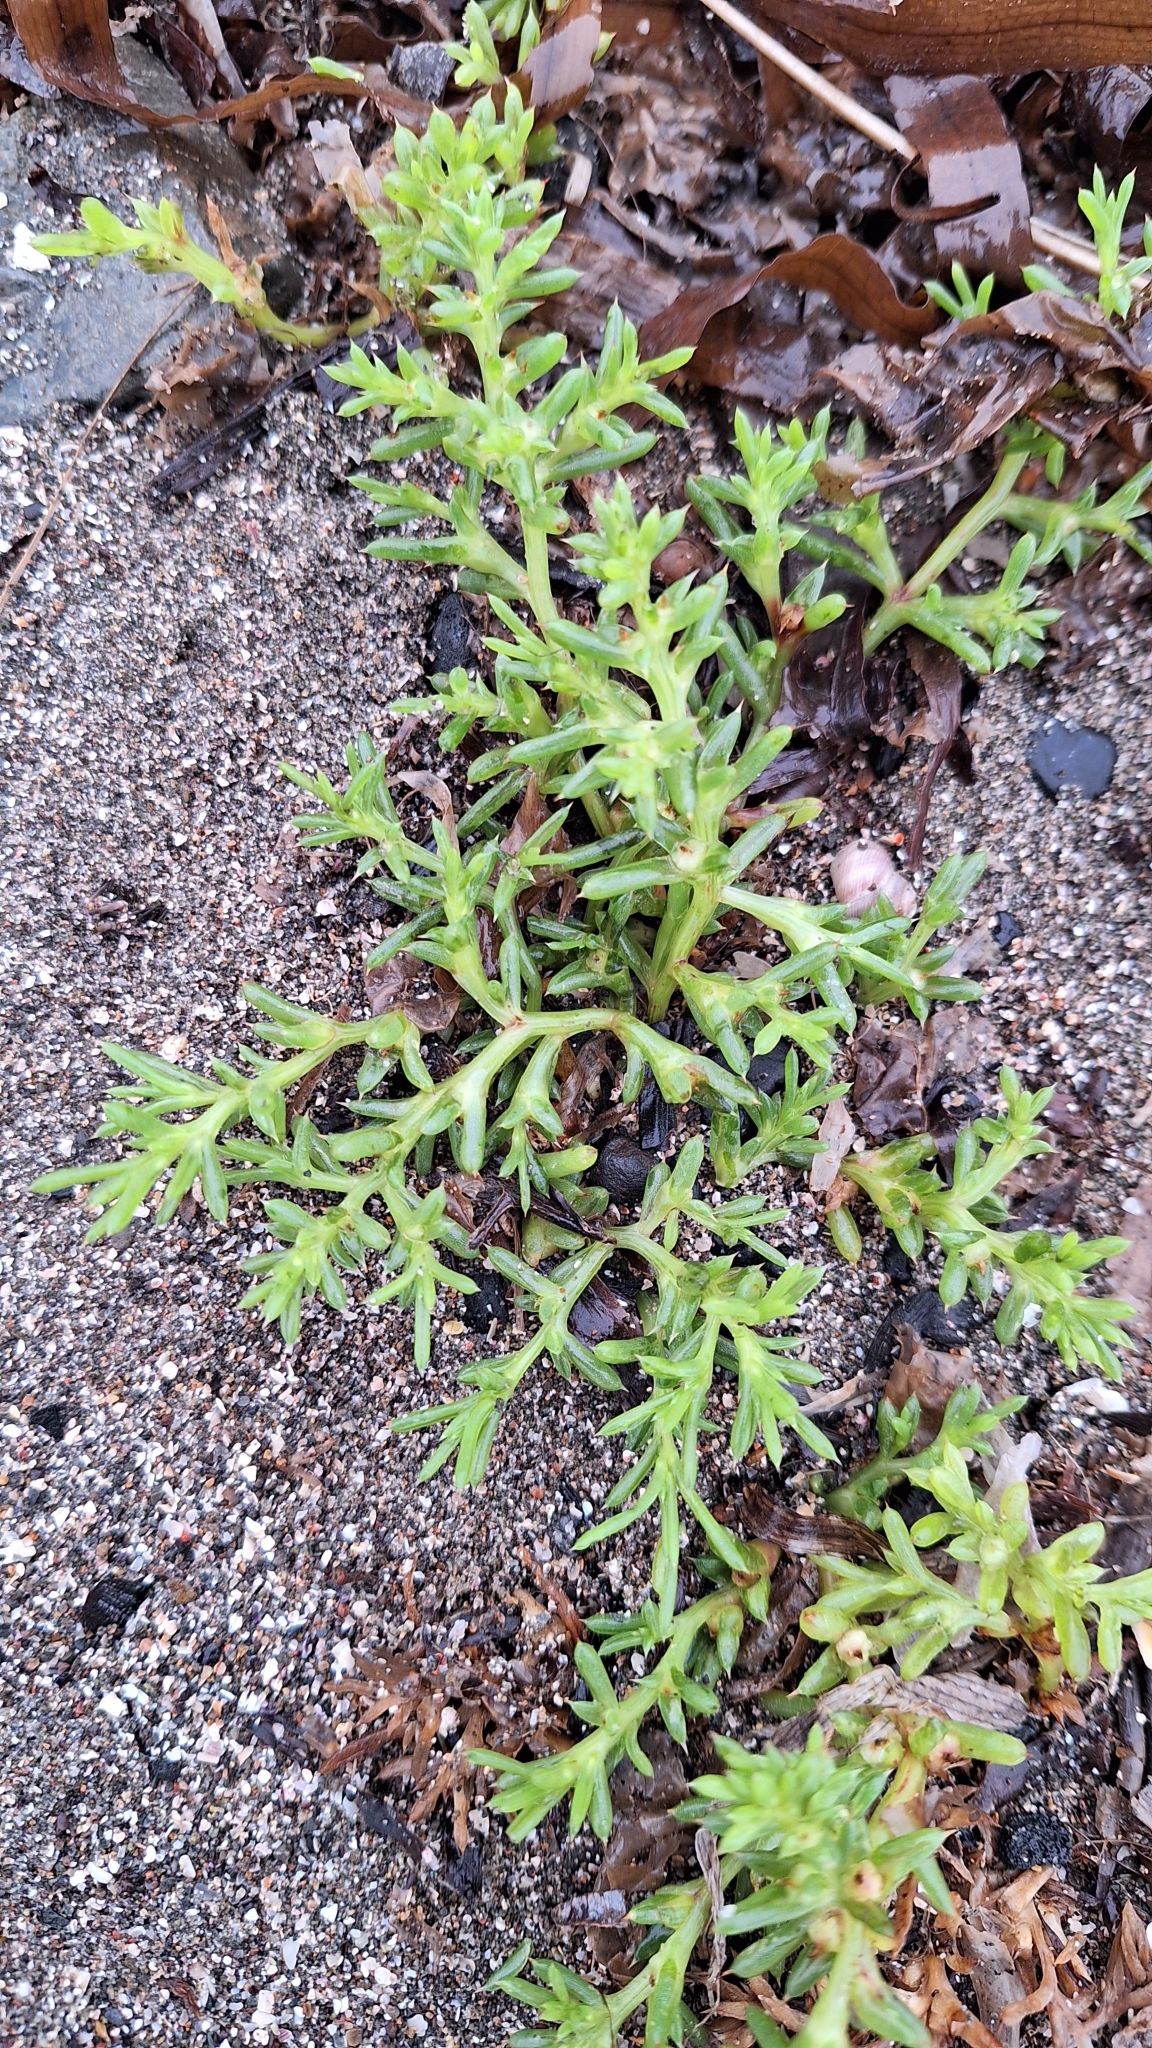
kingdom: Plantae
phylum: Tracheophyta
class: Magnoliopsida
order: Caryophyllales
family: Amaranthaceae
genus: Salsola
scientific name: Salsola komarovii
